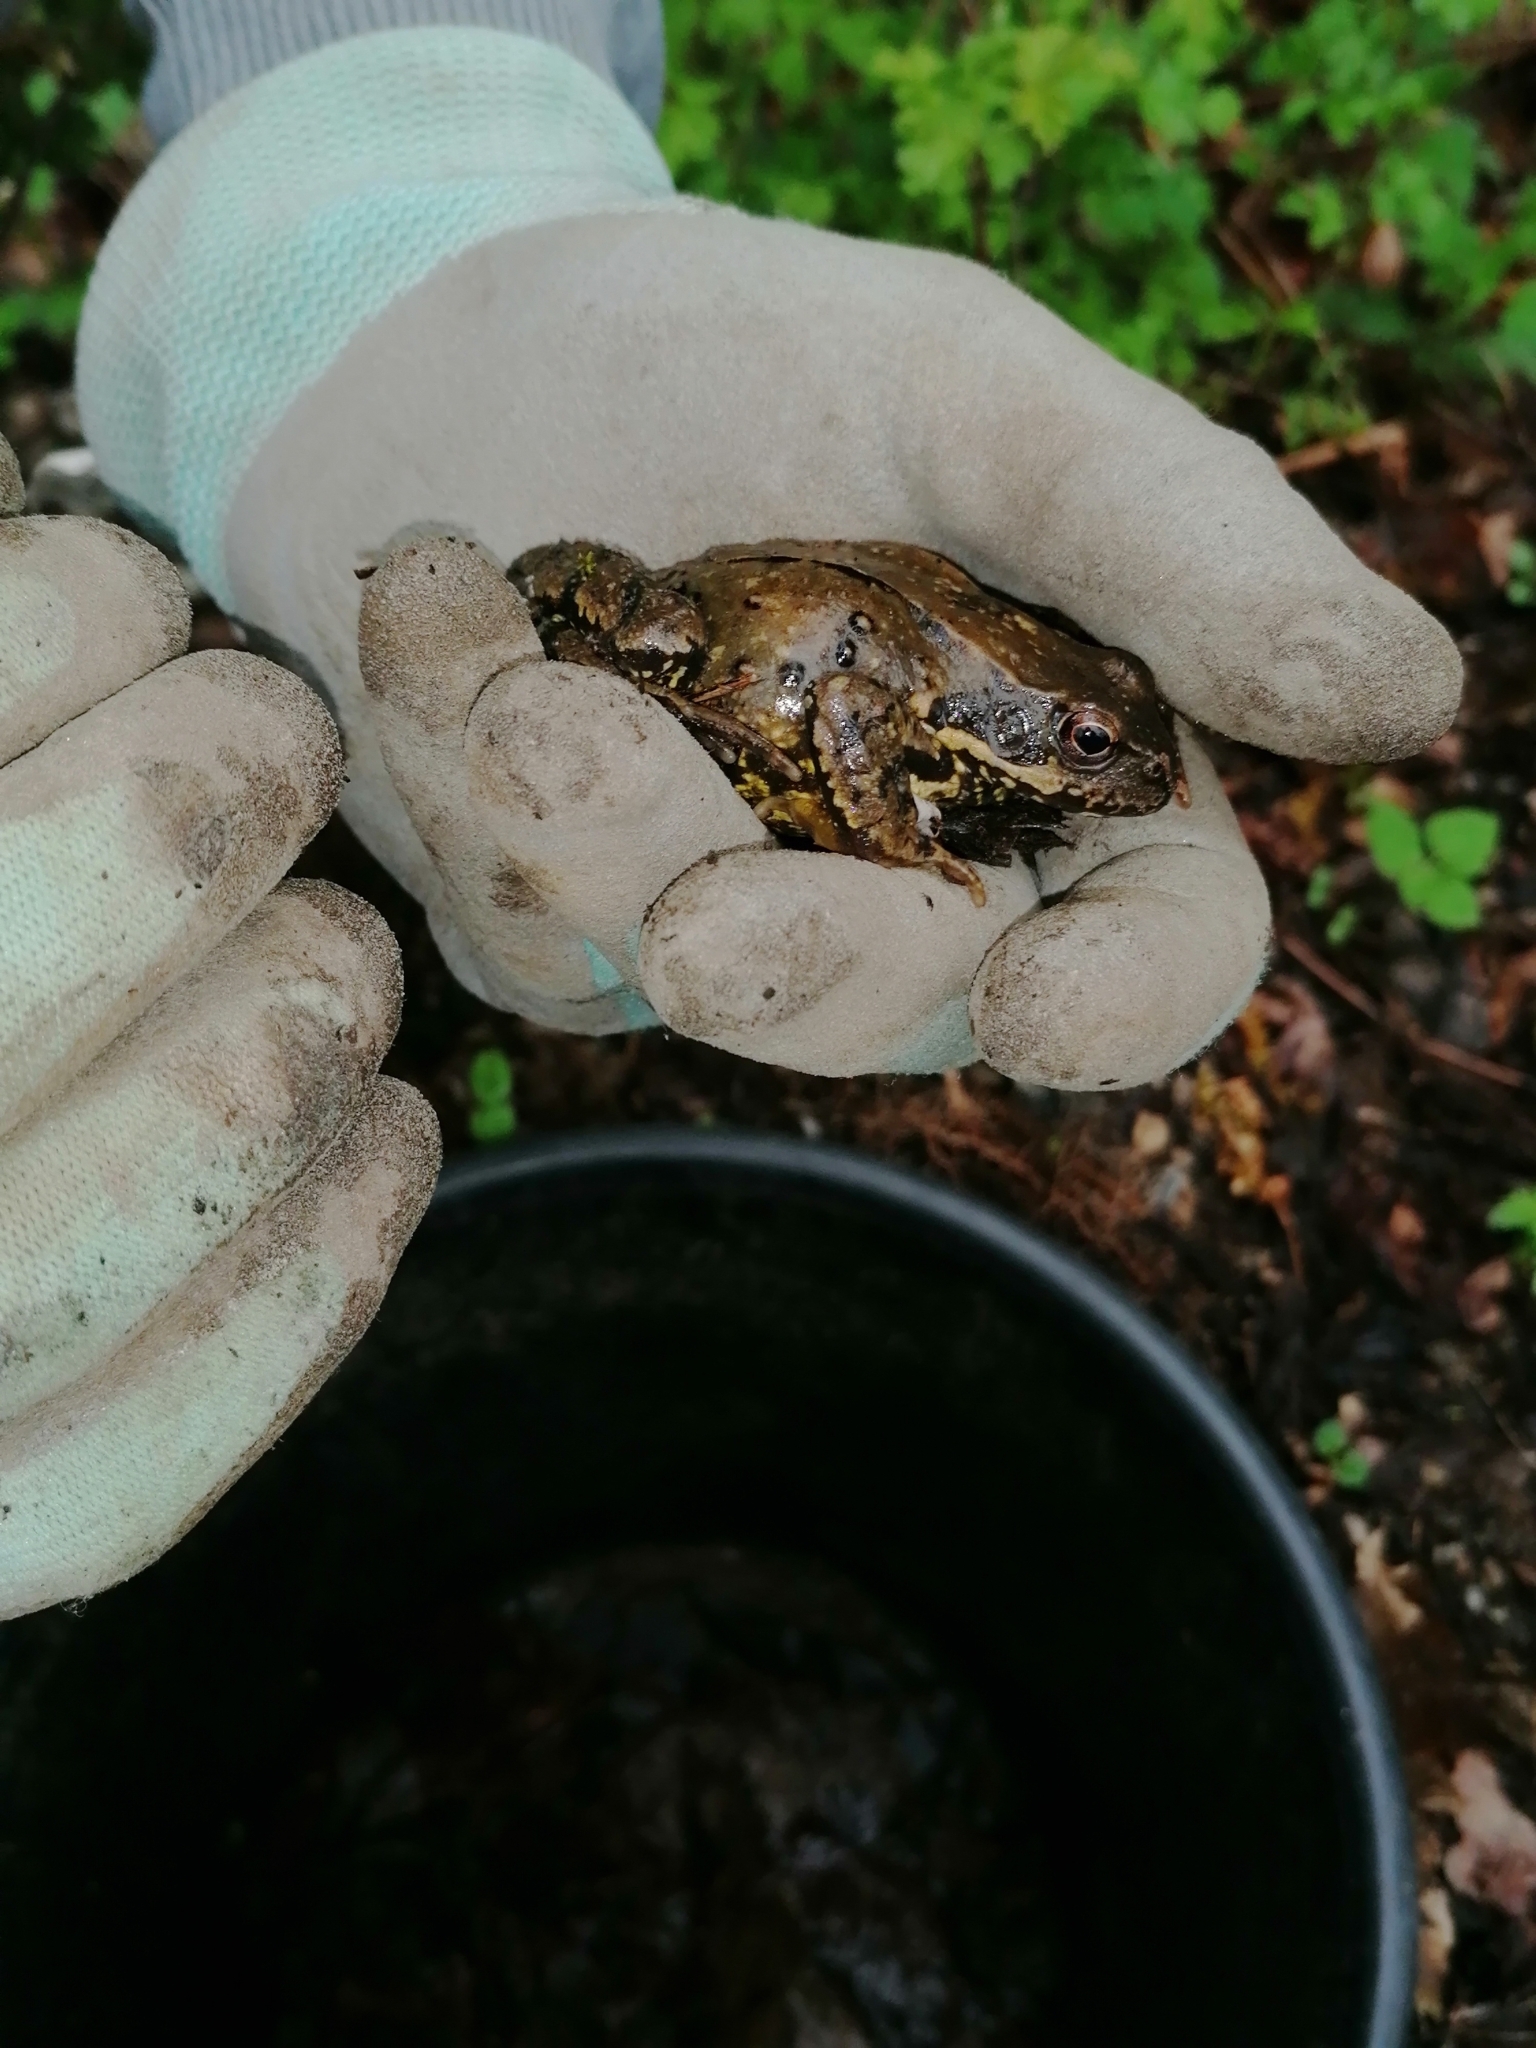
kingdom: Animalia
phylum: Chordata
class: Amphibia
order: Anura
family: Ranidae
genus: Rana
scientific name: Rana temporaria
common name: Common frog
